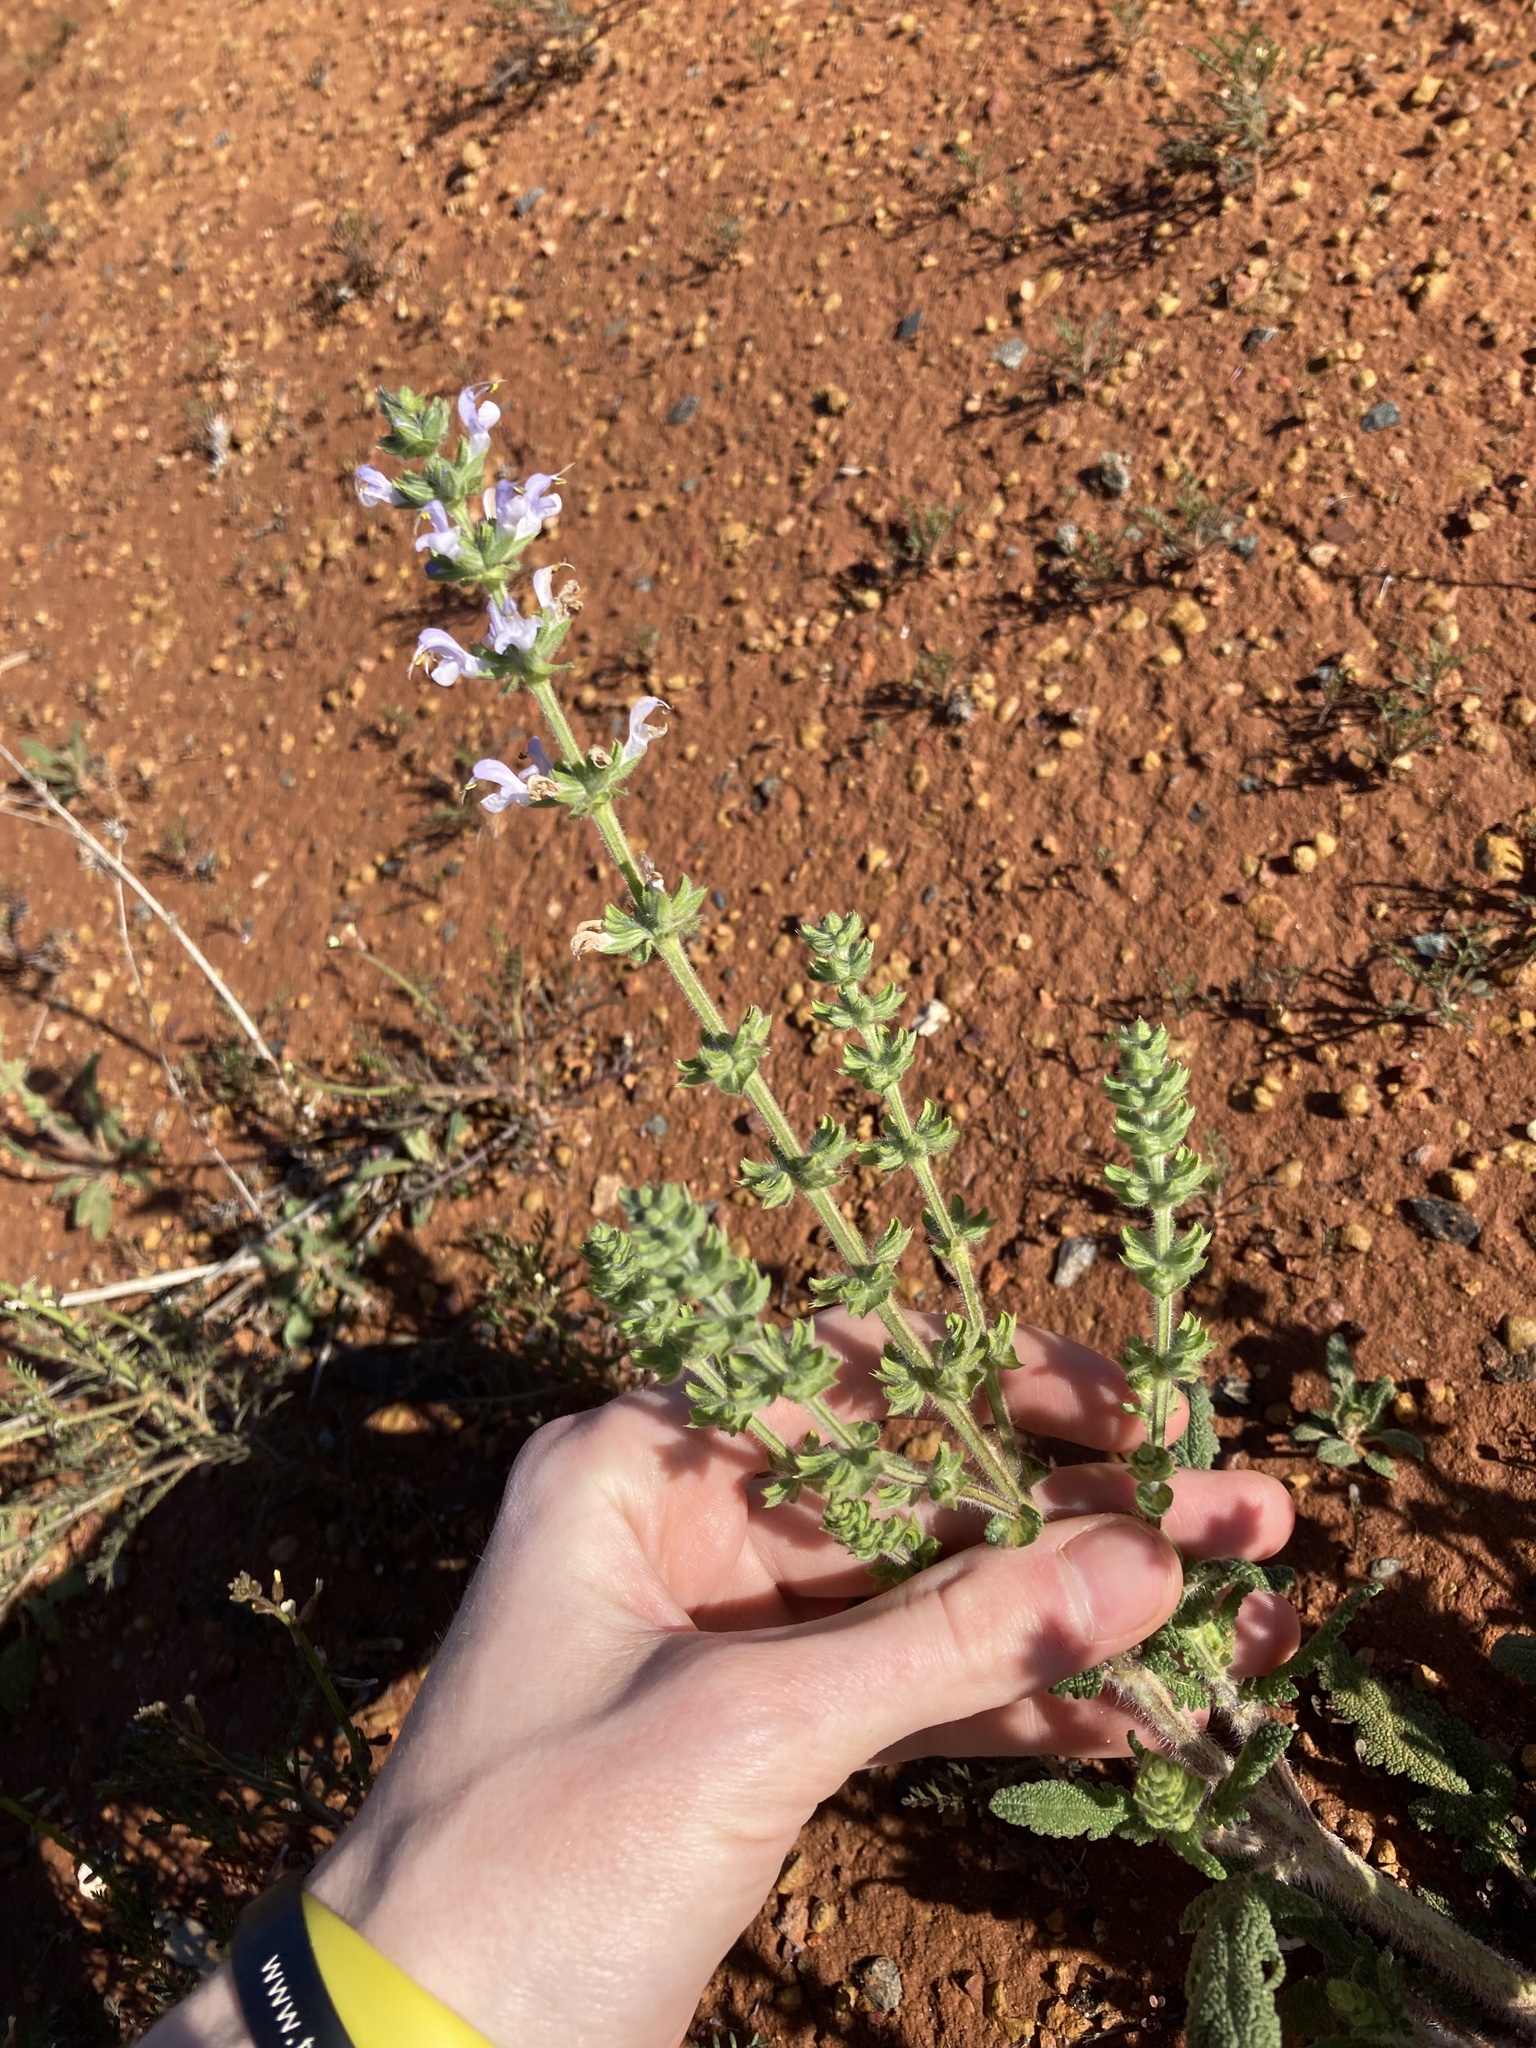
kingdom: Plantae
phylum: Tracheophyta
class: Magnoliopsida
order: Lamiales
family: Lamiaceae
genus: Salvia
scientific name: Salvia verbenaca
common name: Wild clary
